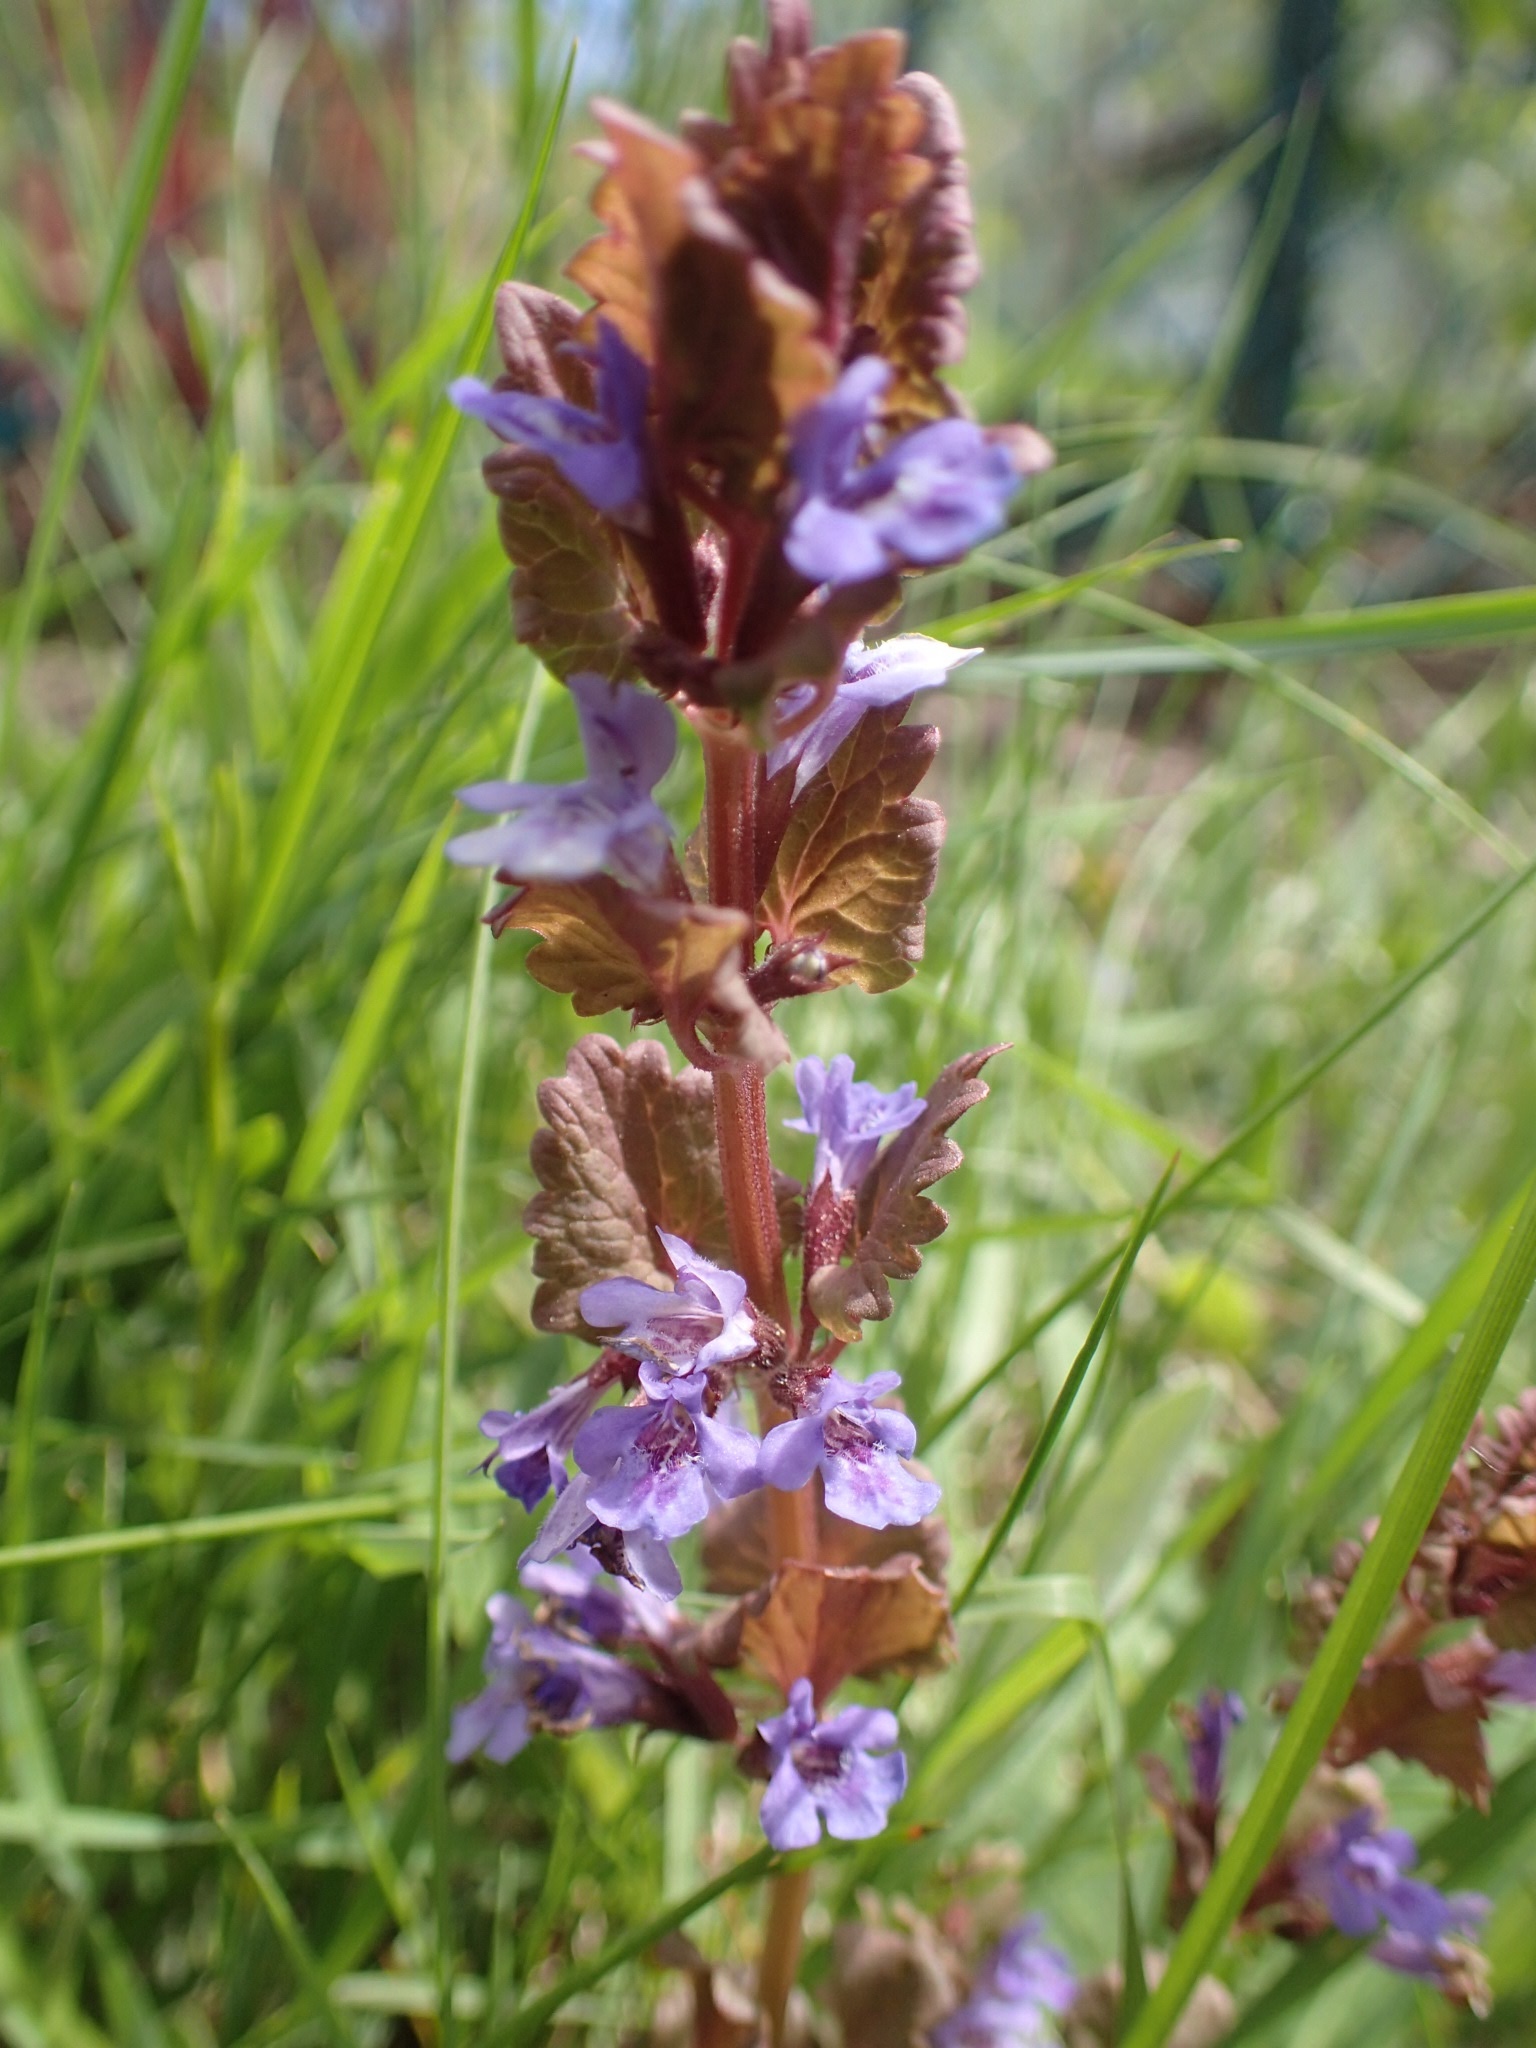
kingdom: Plantae
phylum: Tracheophyta
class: Magnoliopsida
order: Lamiales
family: Lamiaceae
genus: Glechoma
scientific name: Glechoma hederacea
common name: Ground ivy
